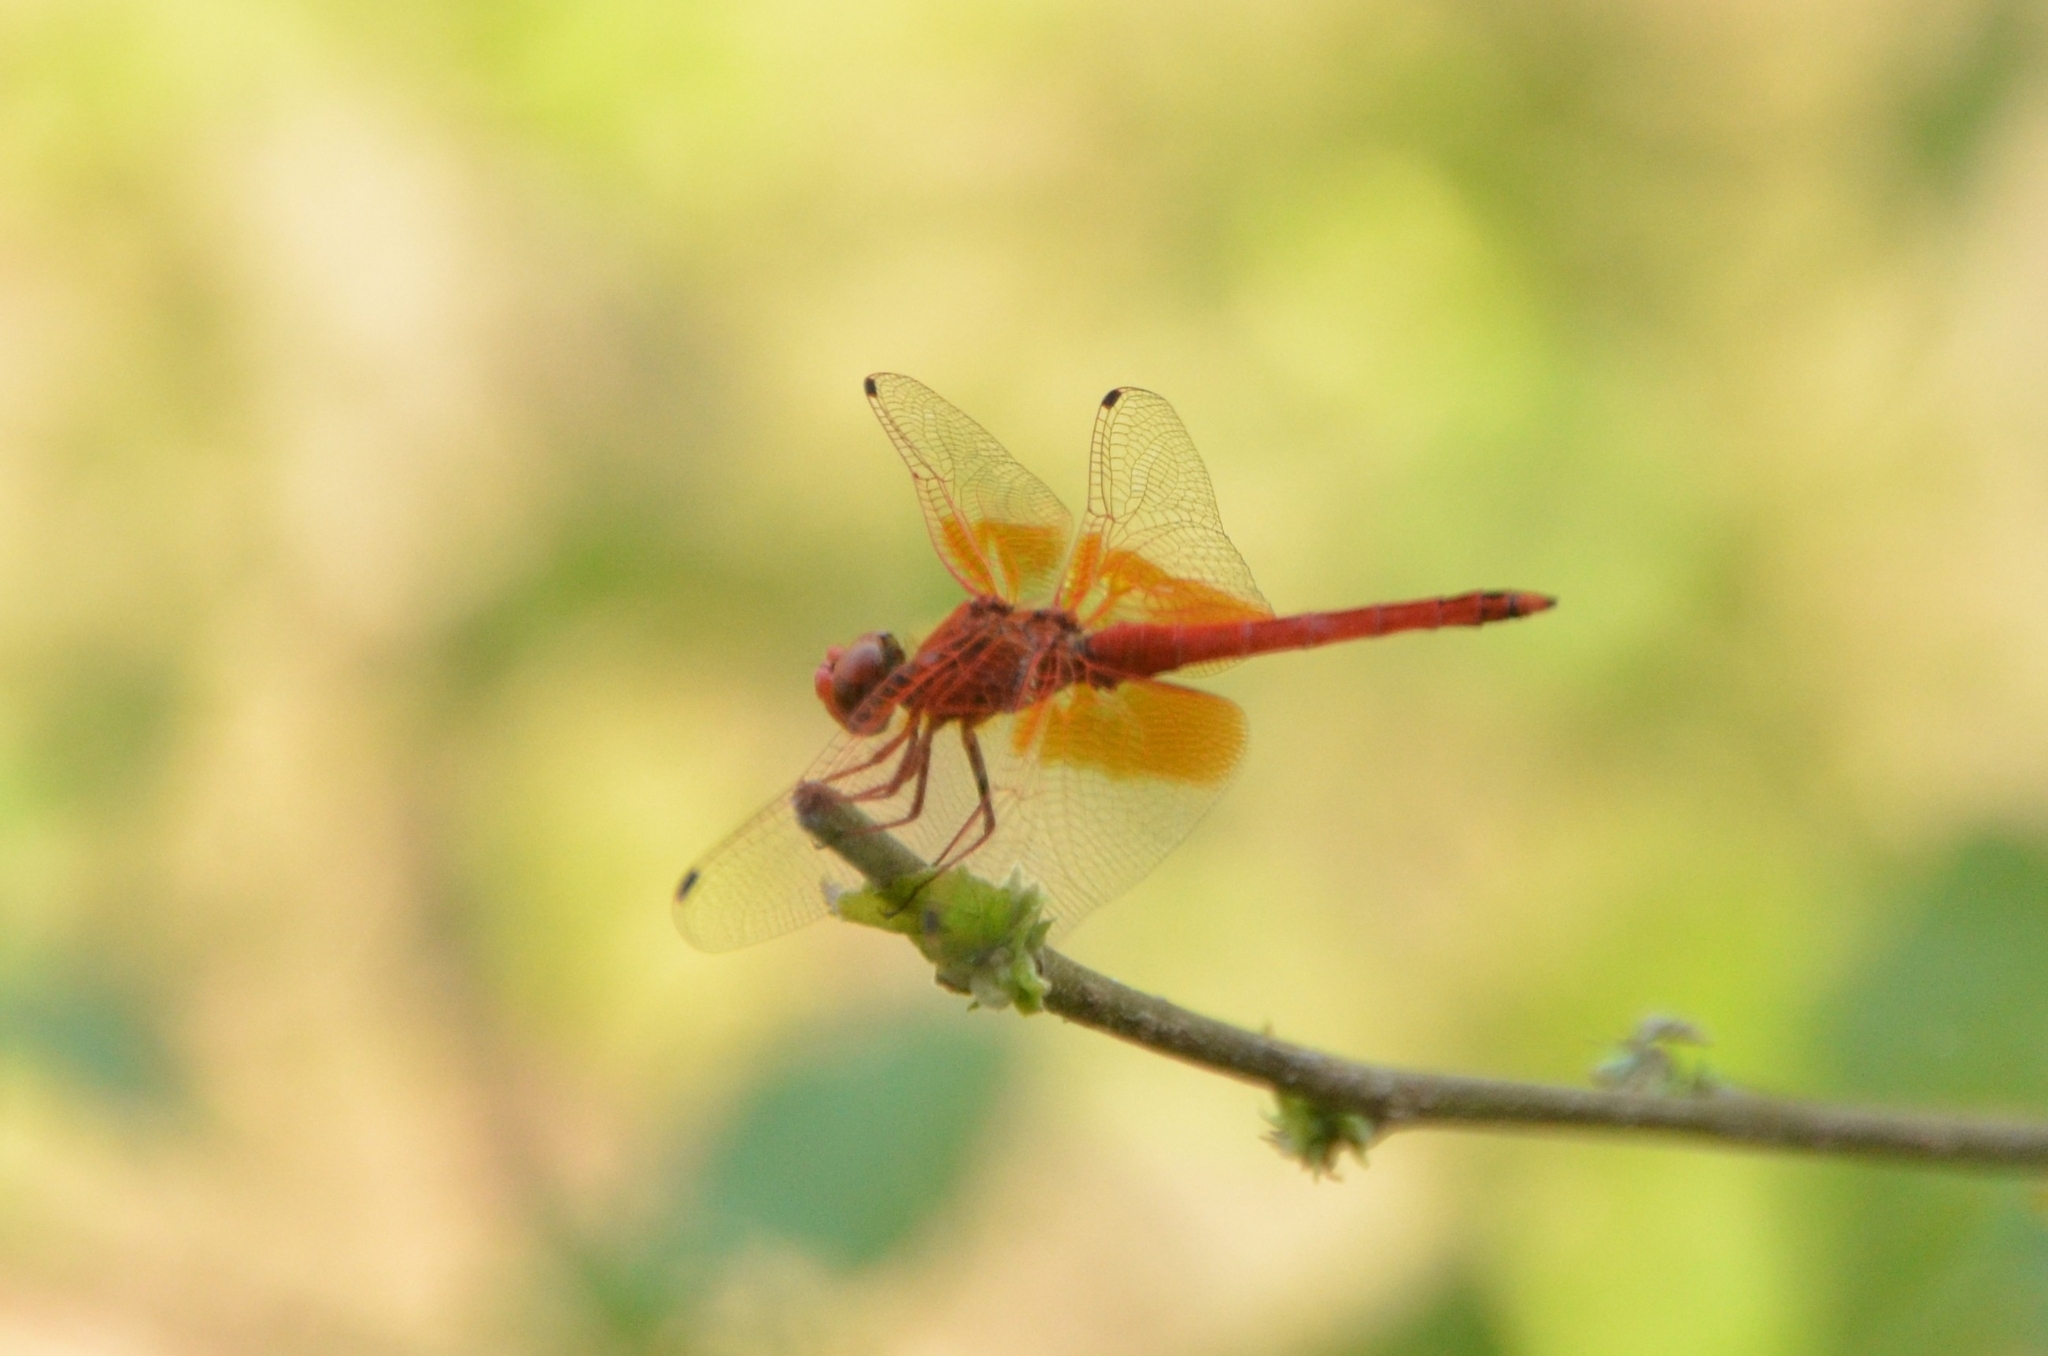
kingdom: Animalia
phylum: Arthropoda
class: Insecta
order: Odonata
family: Libellulidae
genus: Trithemis
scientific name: Trithemis kirbyi
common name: Kirby's dropwing
